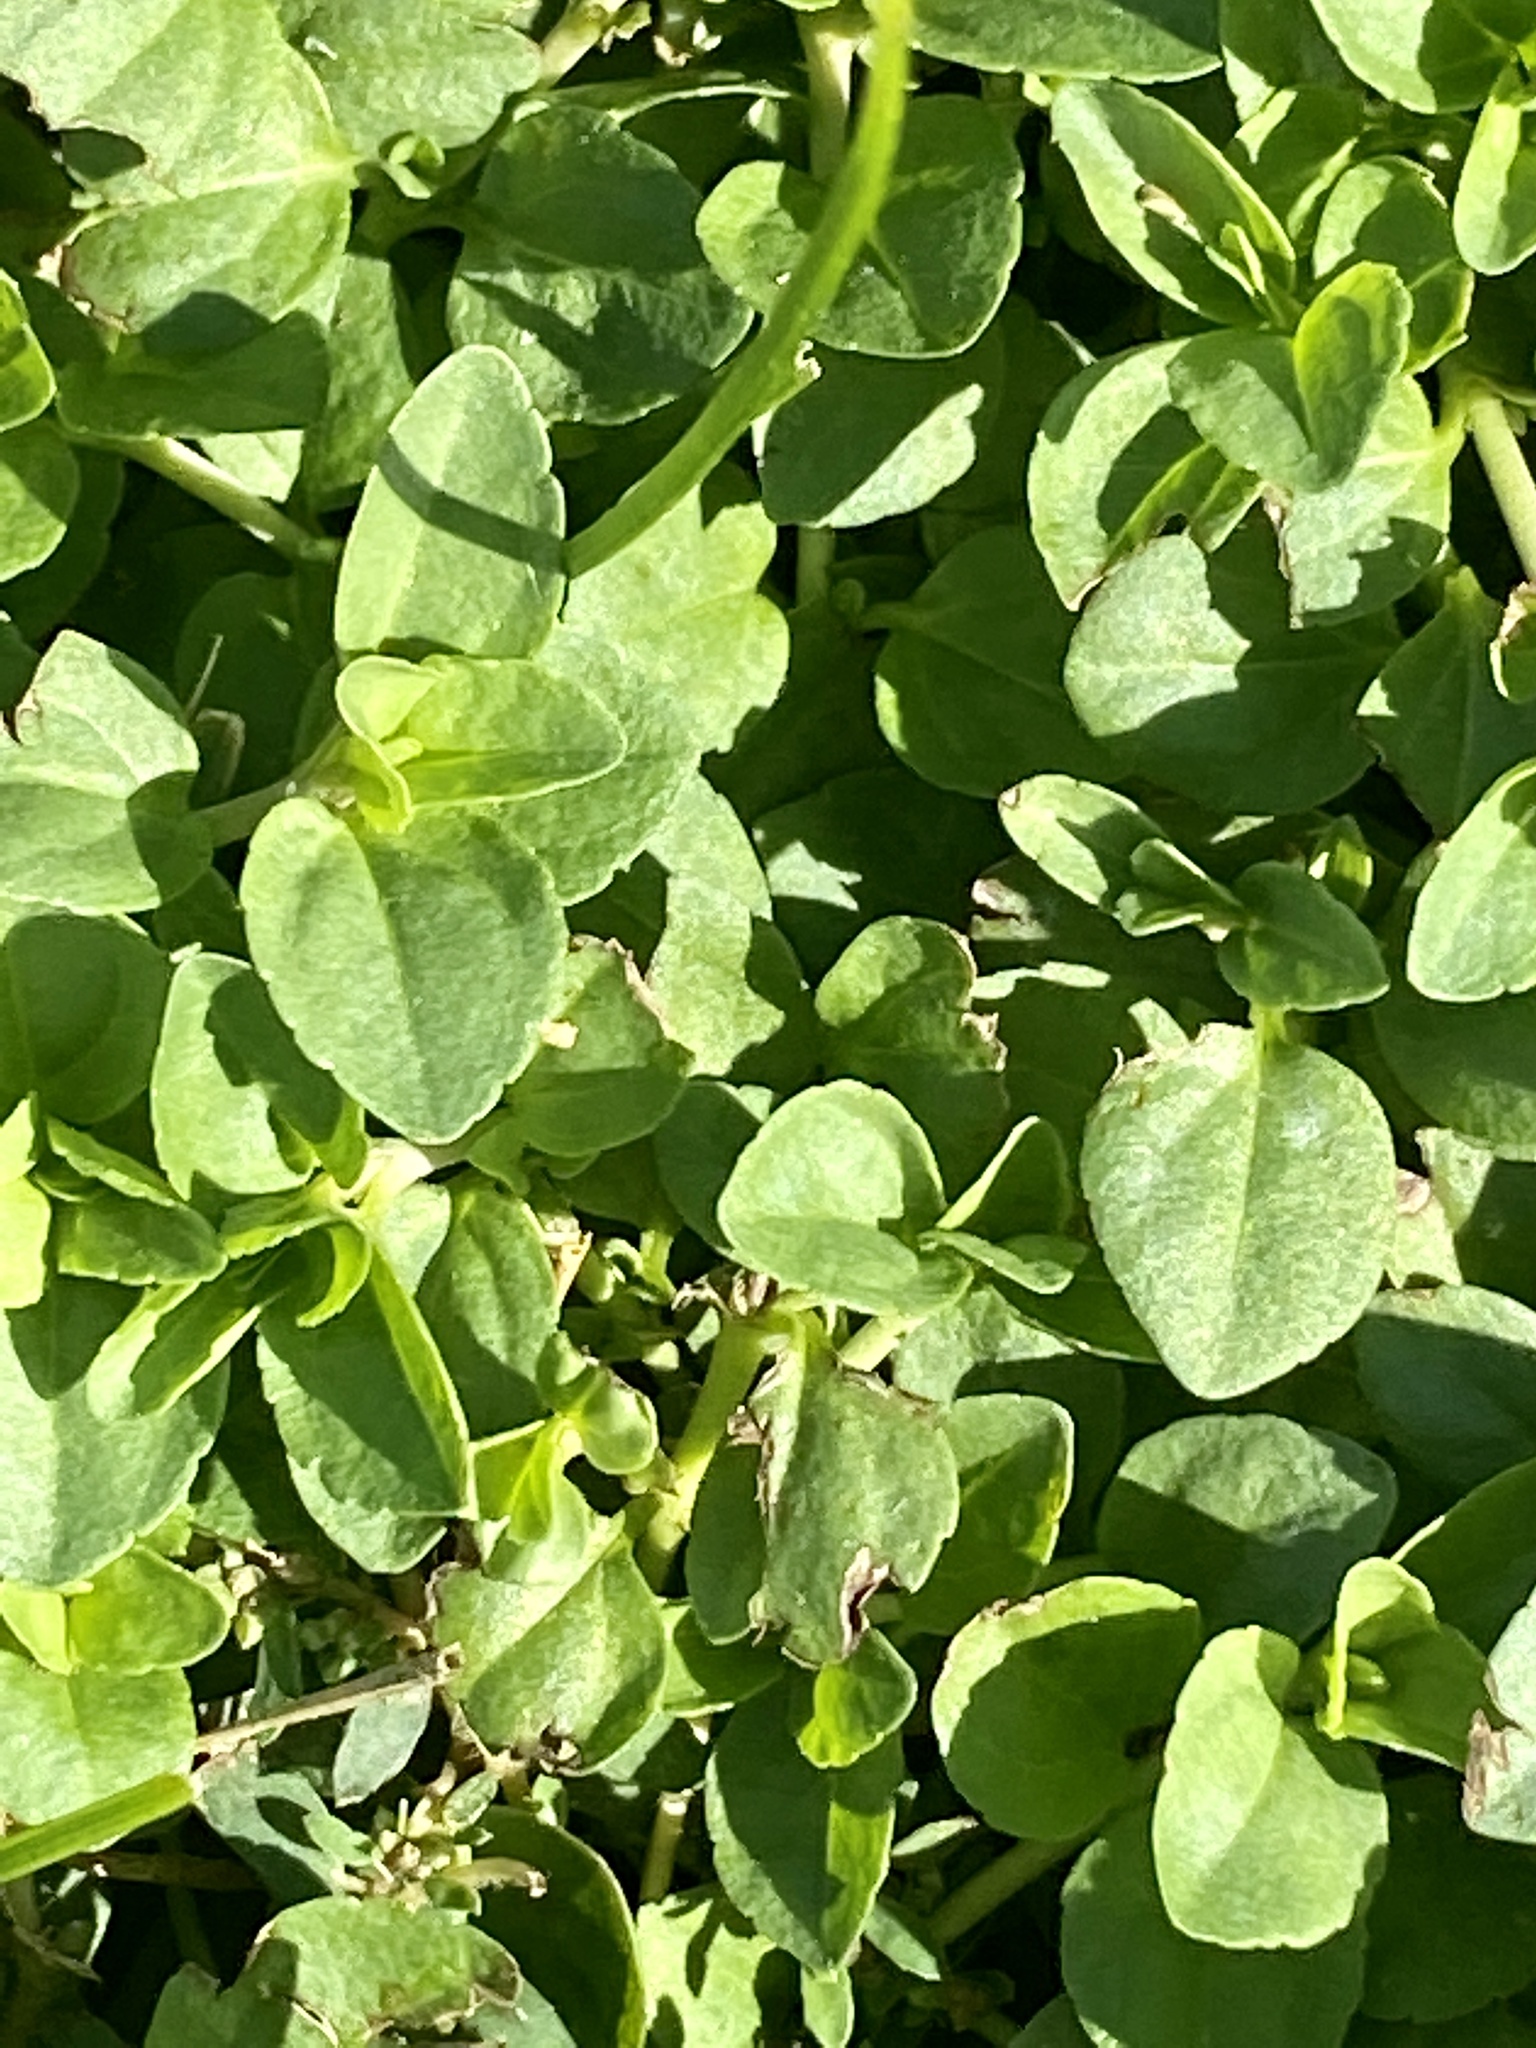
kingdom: Plantae
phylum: Tracheophyta
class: Magnoliopsida
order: Lamiales
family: Plantaginaceae
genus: Veronica
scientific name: Veronica serpyllifolia
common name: Thyme-leaved speedwell
